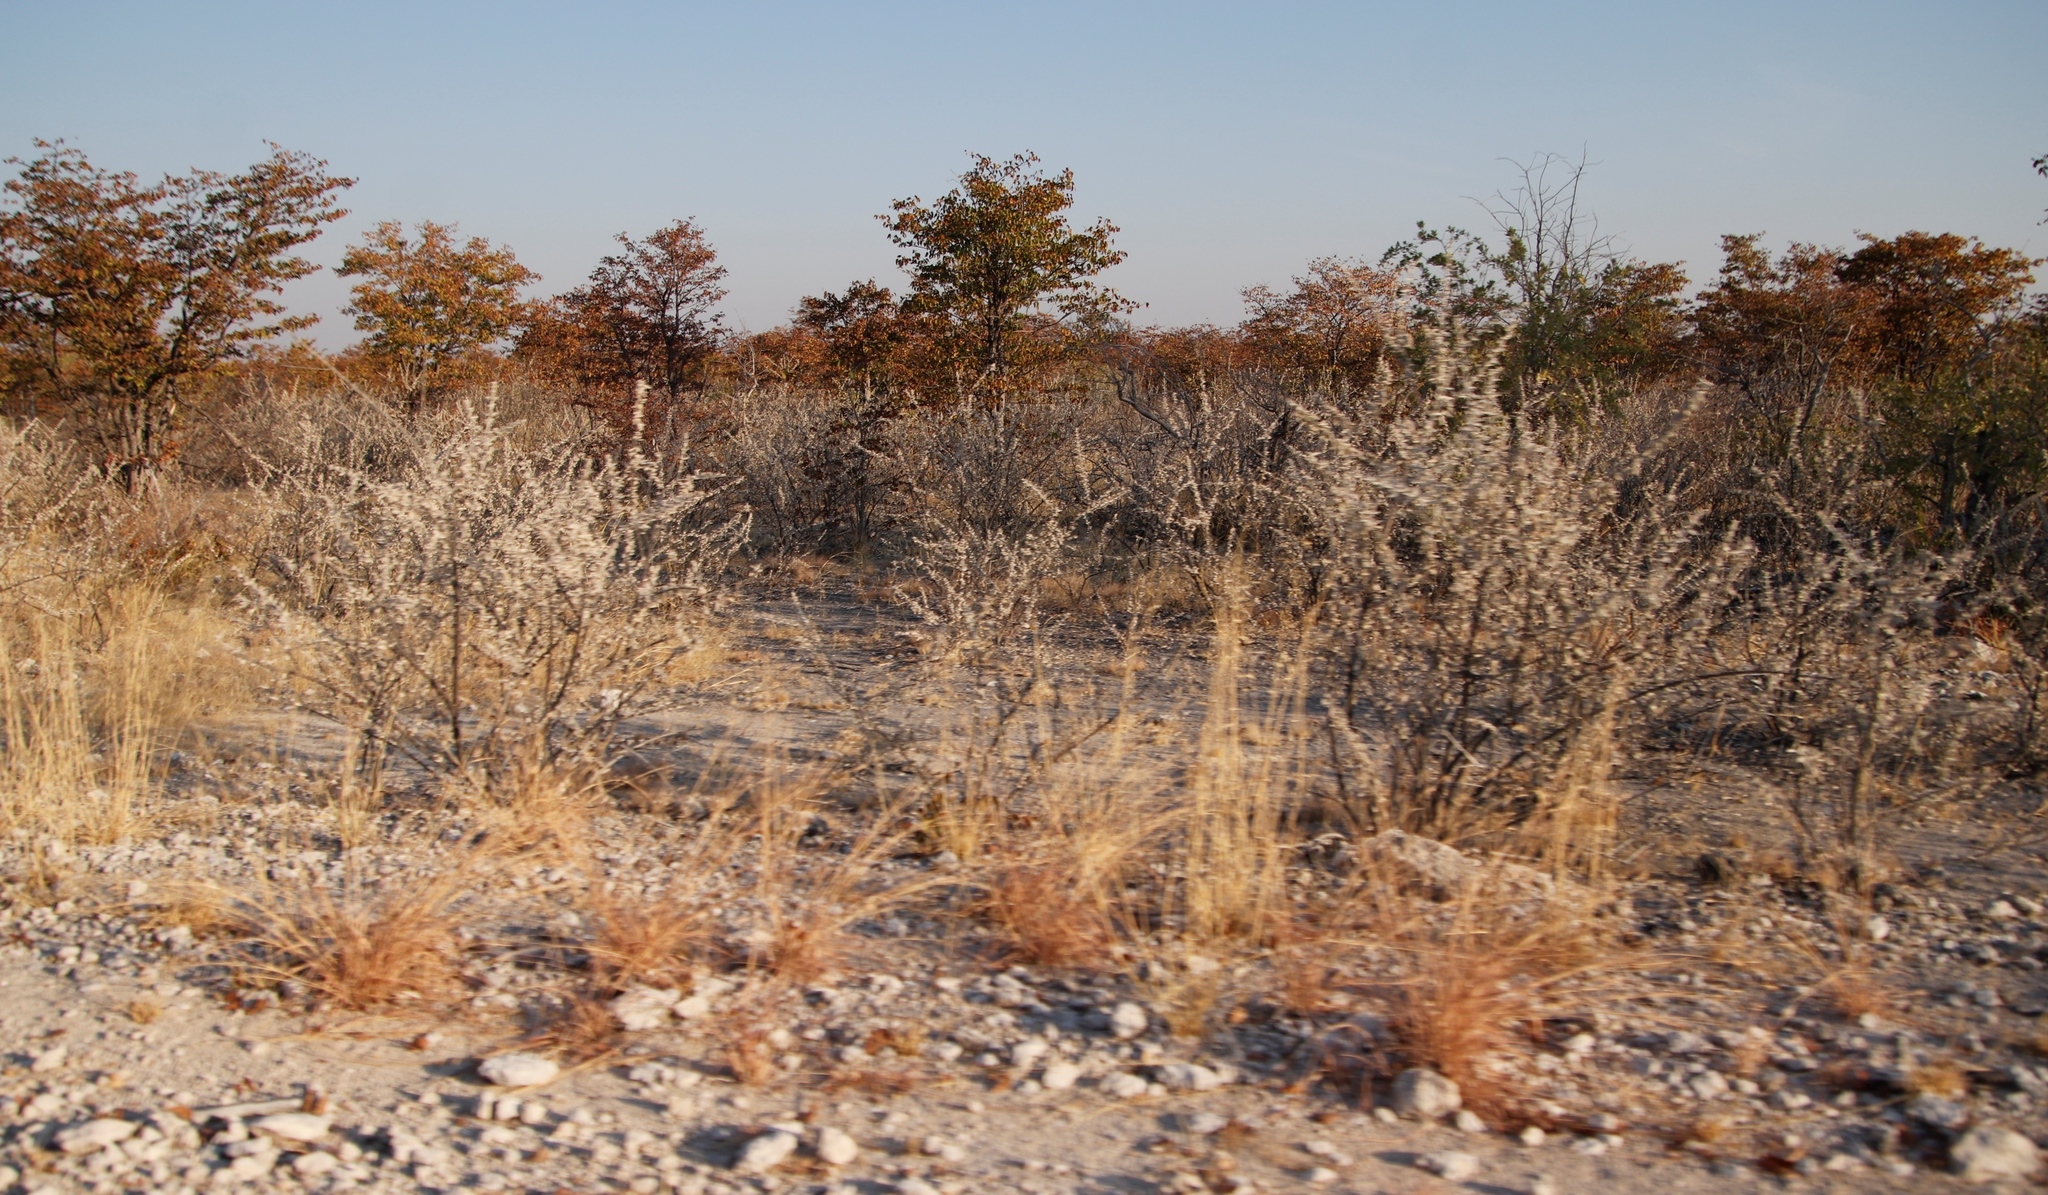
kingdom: Plantae
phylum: Tracheophyta
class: Magnoliopsida
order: Lamiales
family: Bignoniaceae
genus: Catophractes
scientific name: Catophractes alexandri
